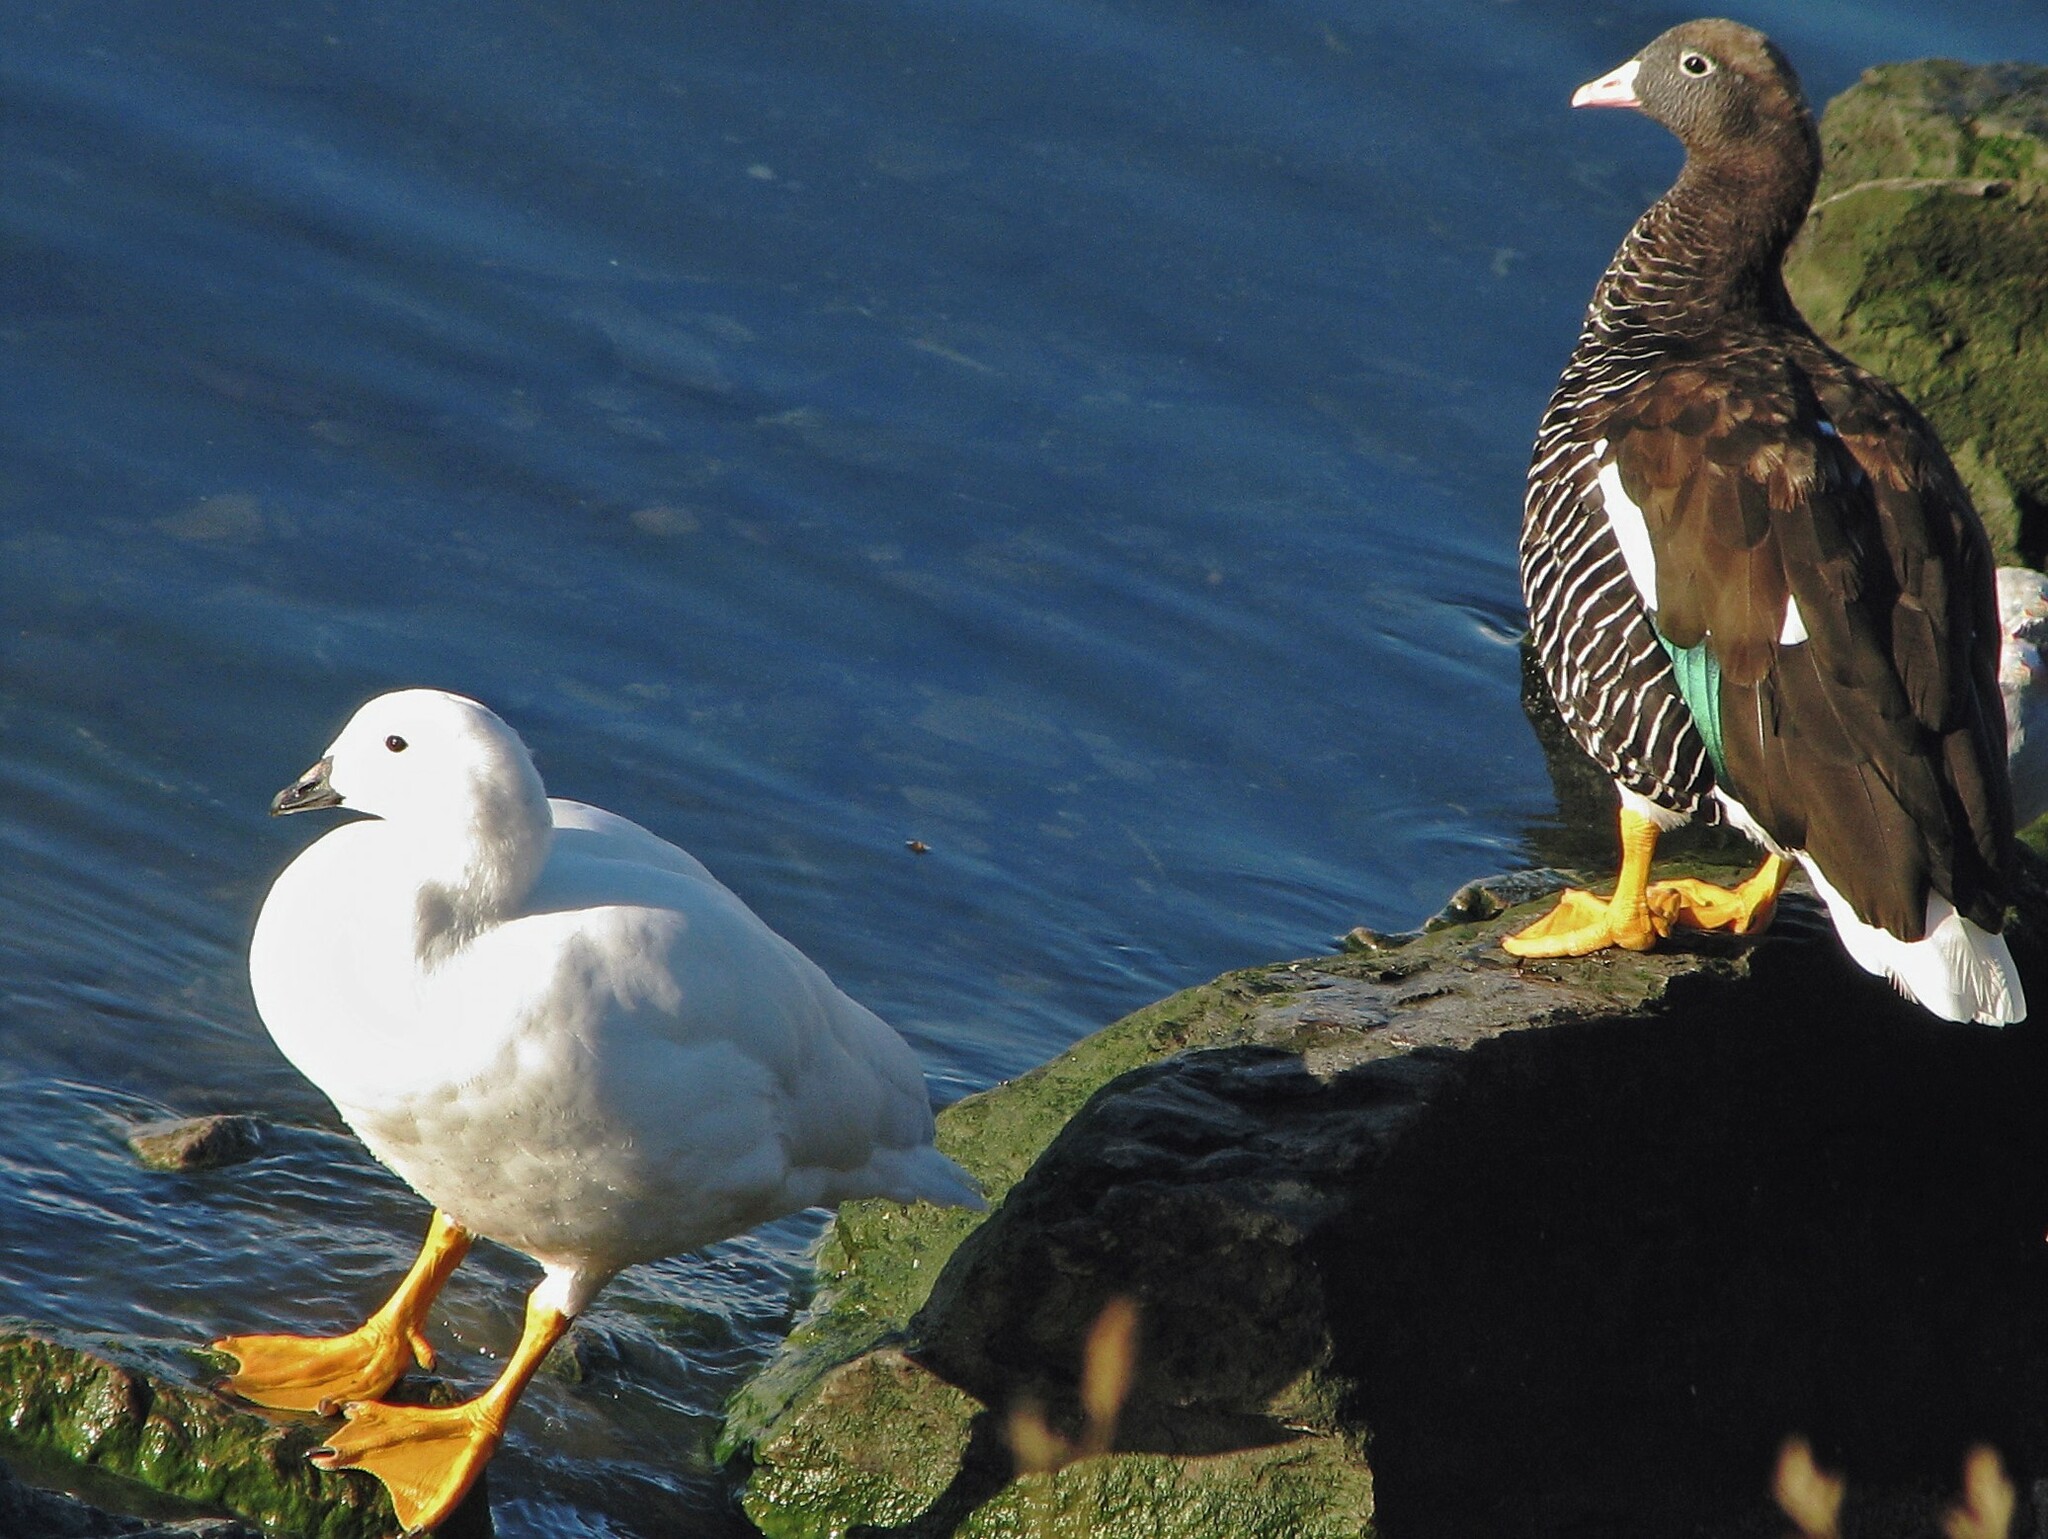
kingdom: Animalia
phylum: Chordata
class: Aves
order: Anseriformes
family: Anatidae
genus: Chloephaga
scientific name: Chloephaga hybrida
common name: Kelp goose
